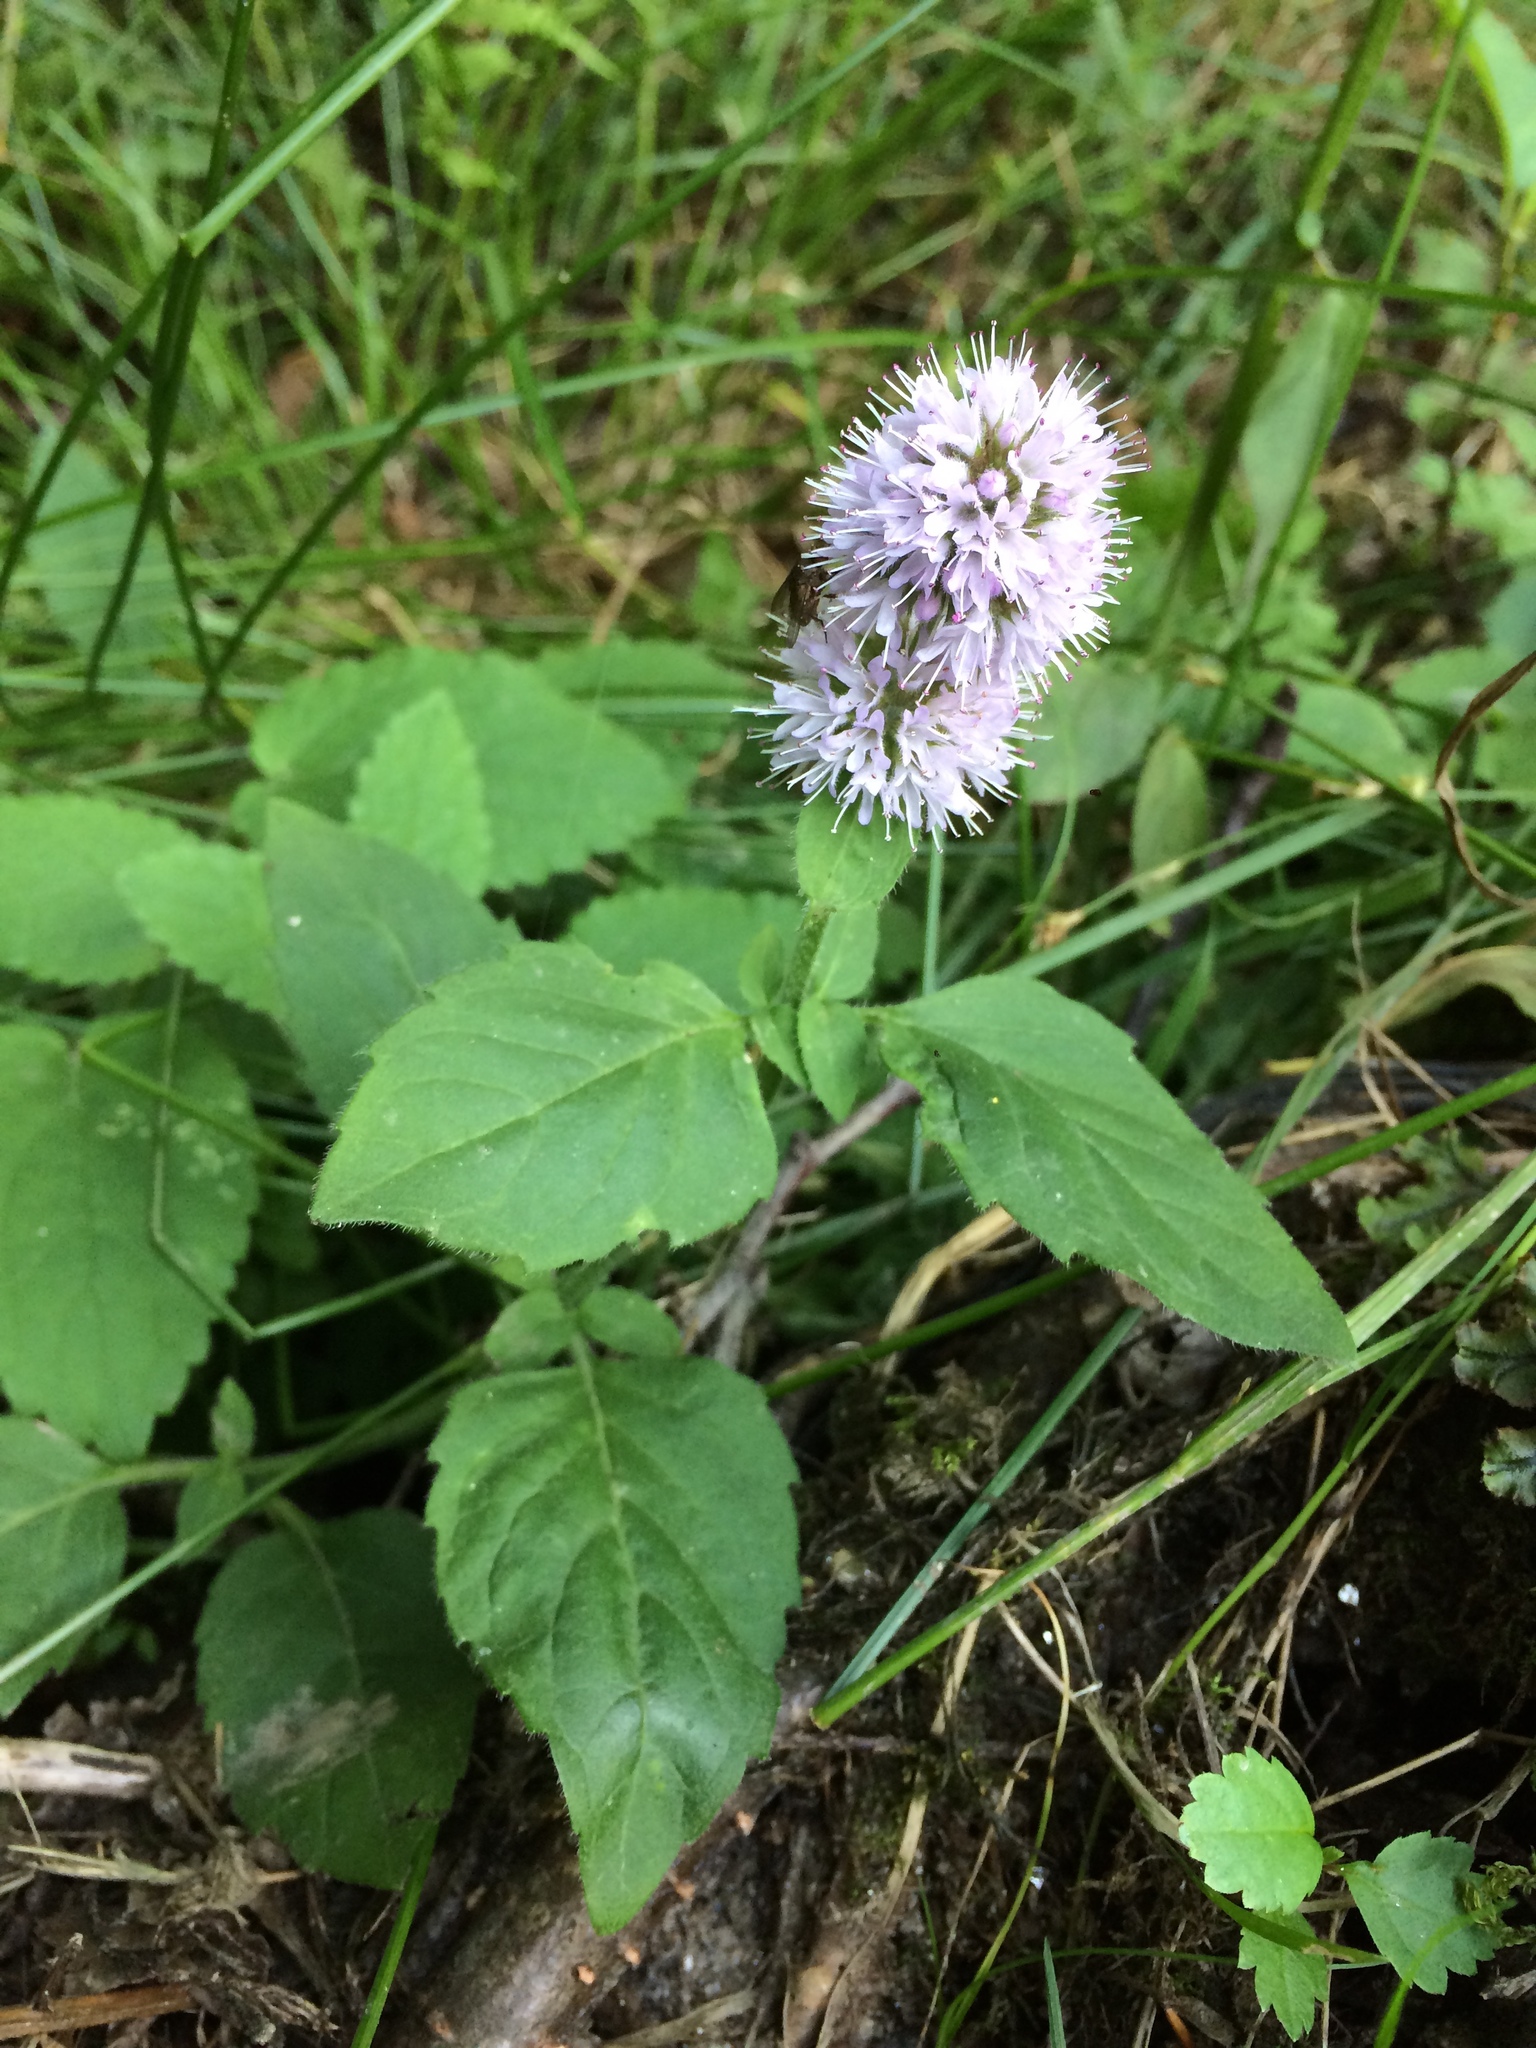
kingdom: Plantae
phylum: Tracheophyta
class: Magnoliopsida
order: Lamiales
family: Lamiaceae
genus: Mentha
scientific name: Mentha aquatica
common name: Water mint
